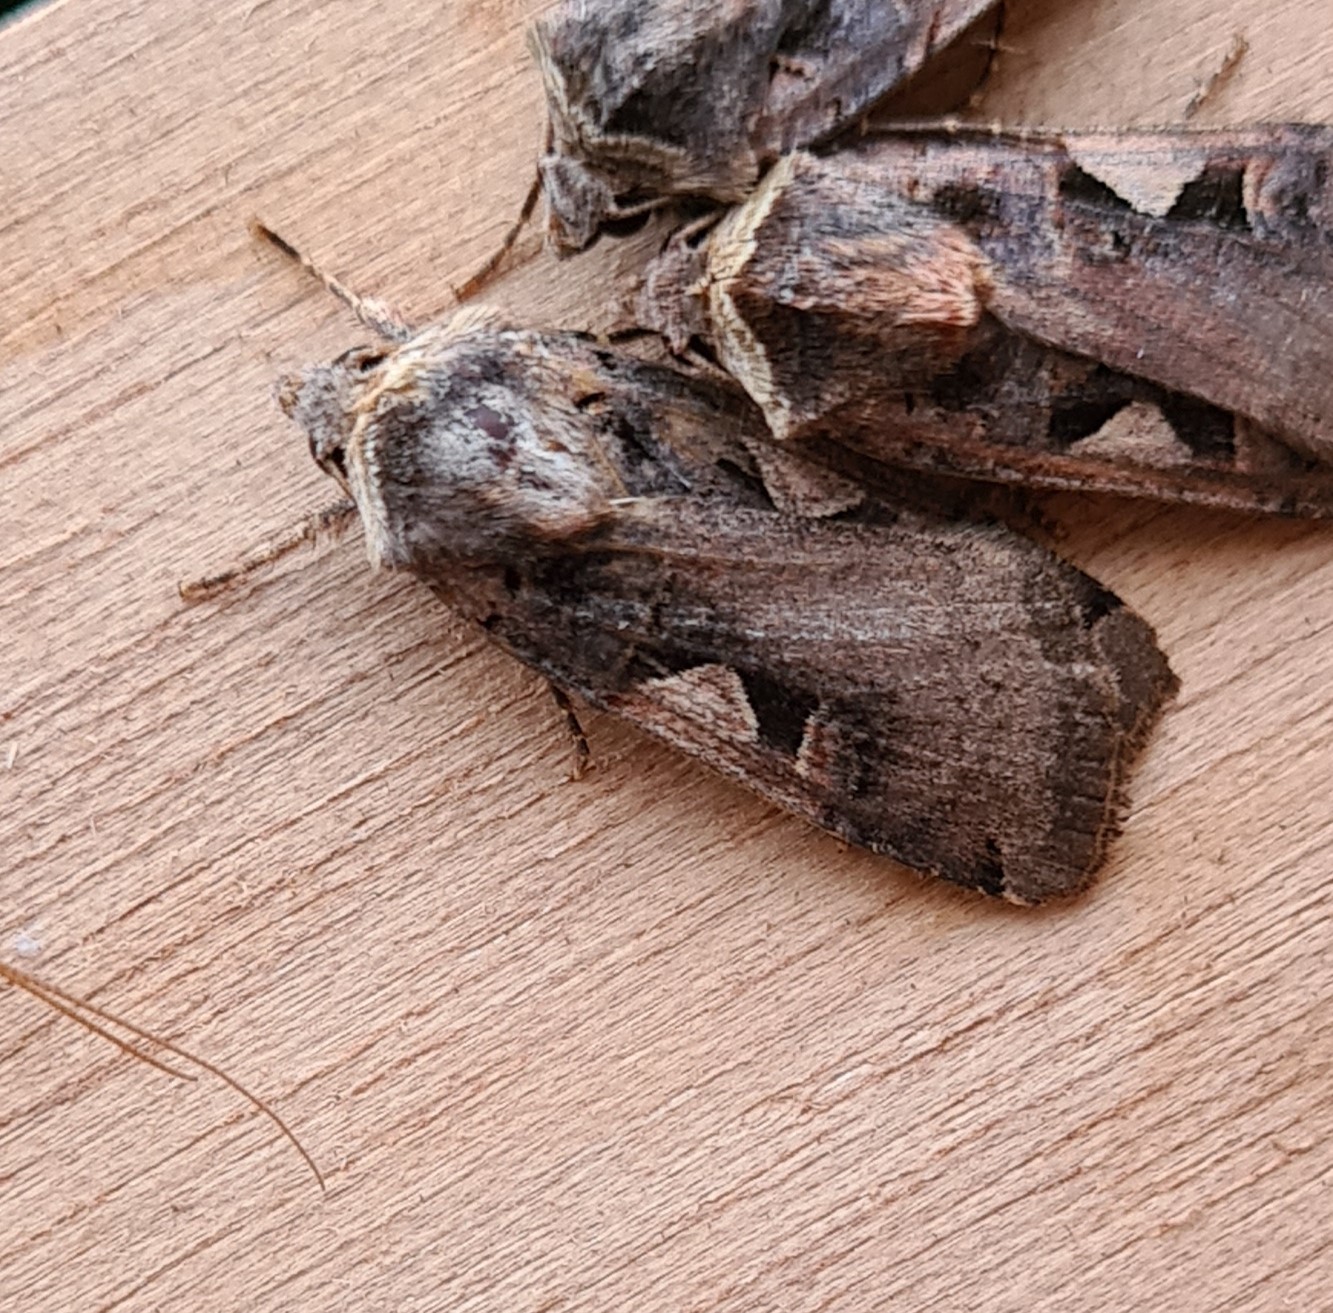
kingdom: Animalia
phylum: Arthropoda
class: Insecta
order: Lepidoptera
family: Noctuidae
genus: Xestia
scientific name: Xestia c-nigrum
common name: Setaceous hebrew character
